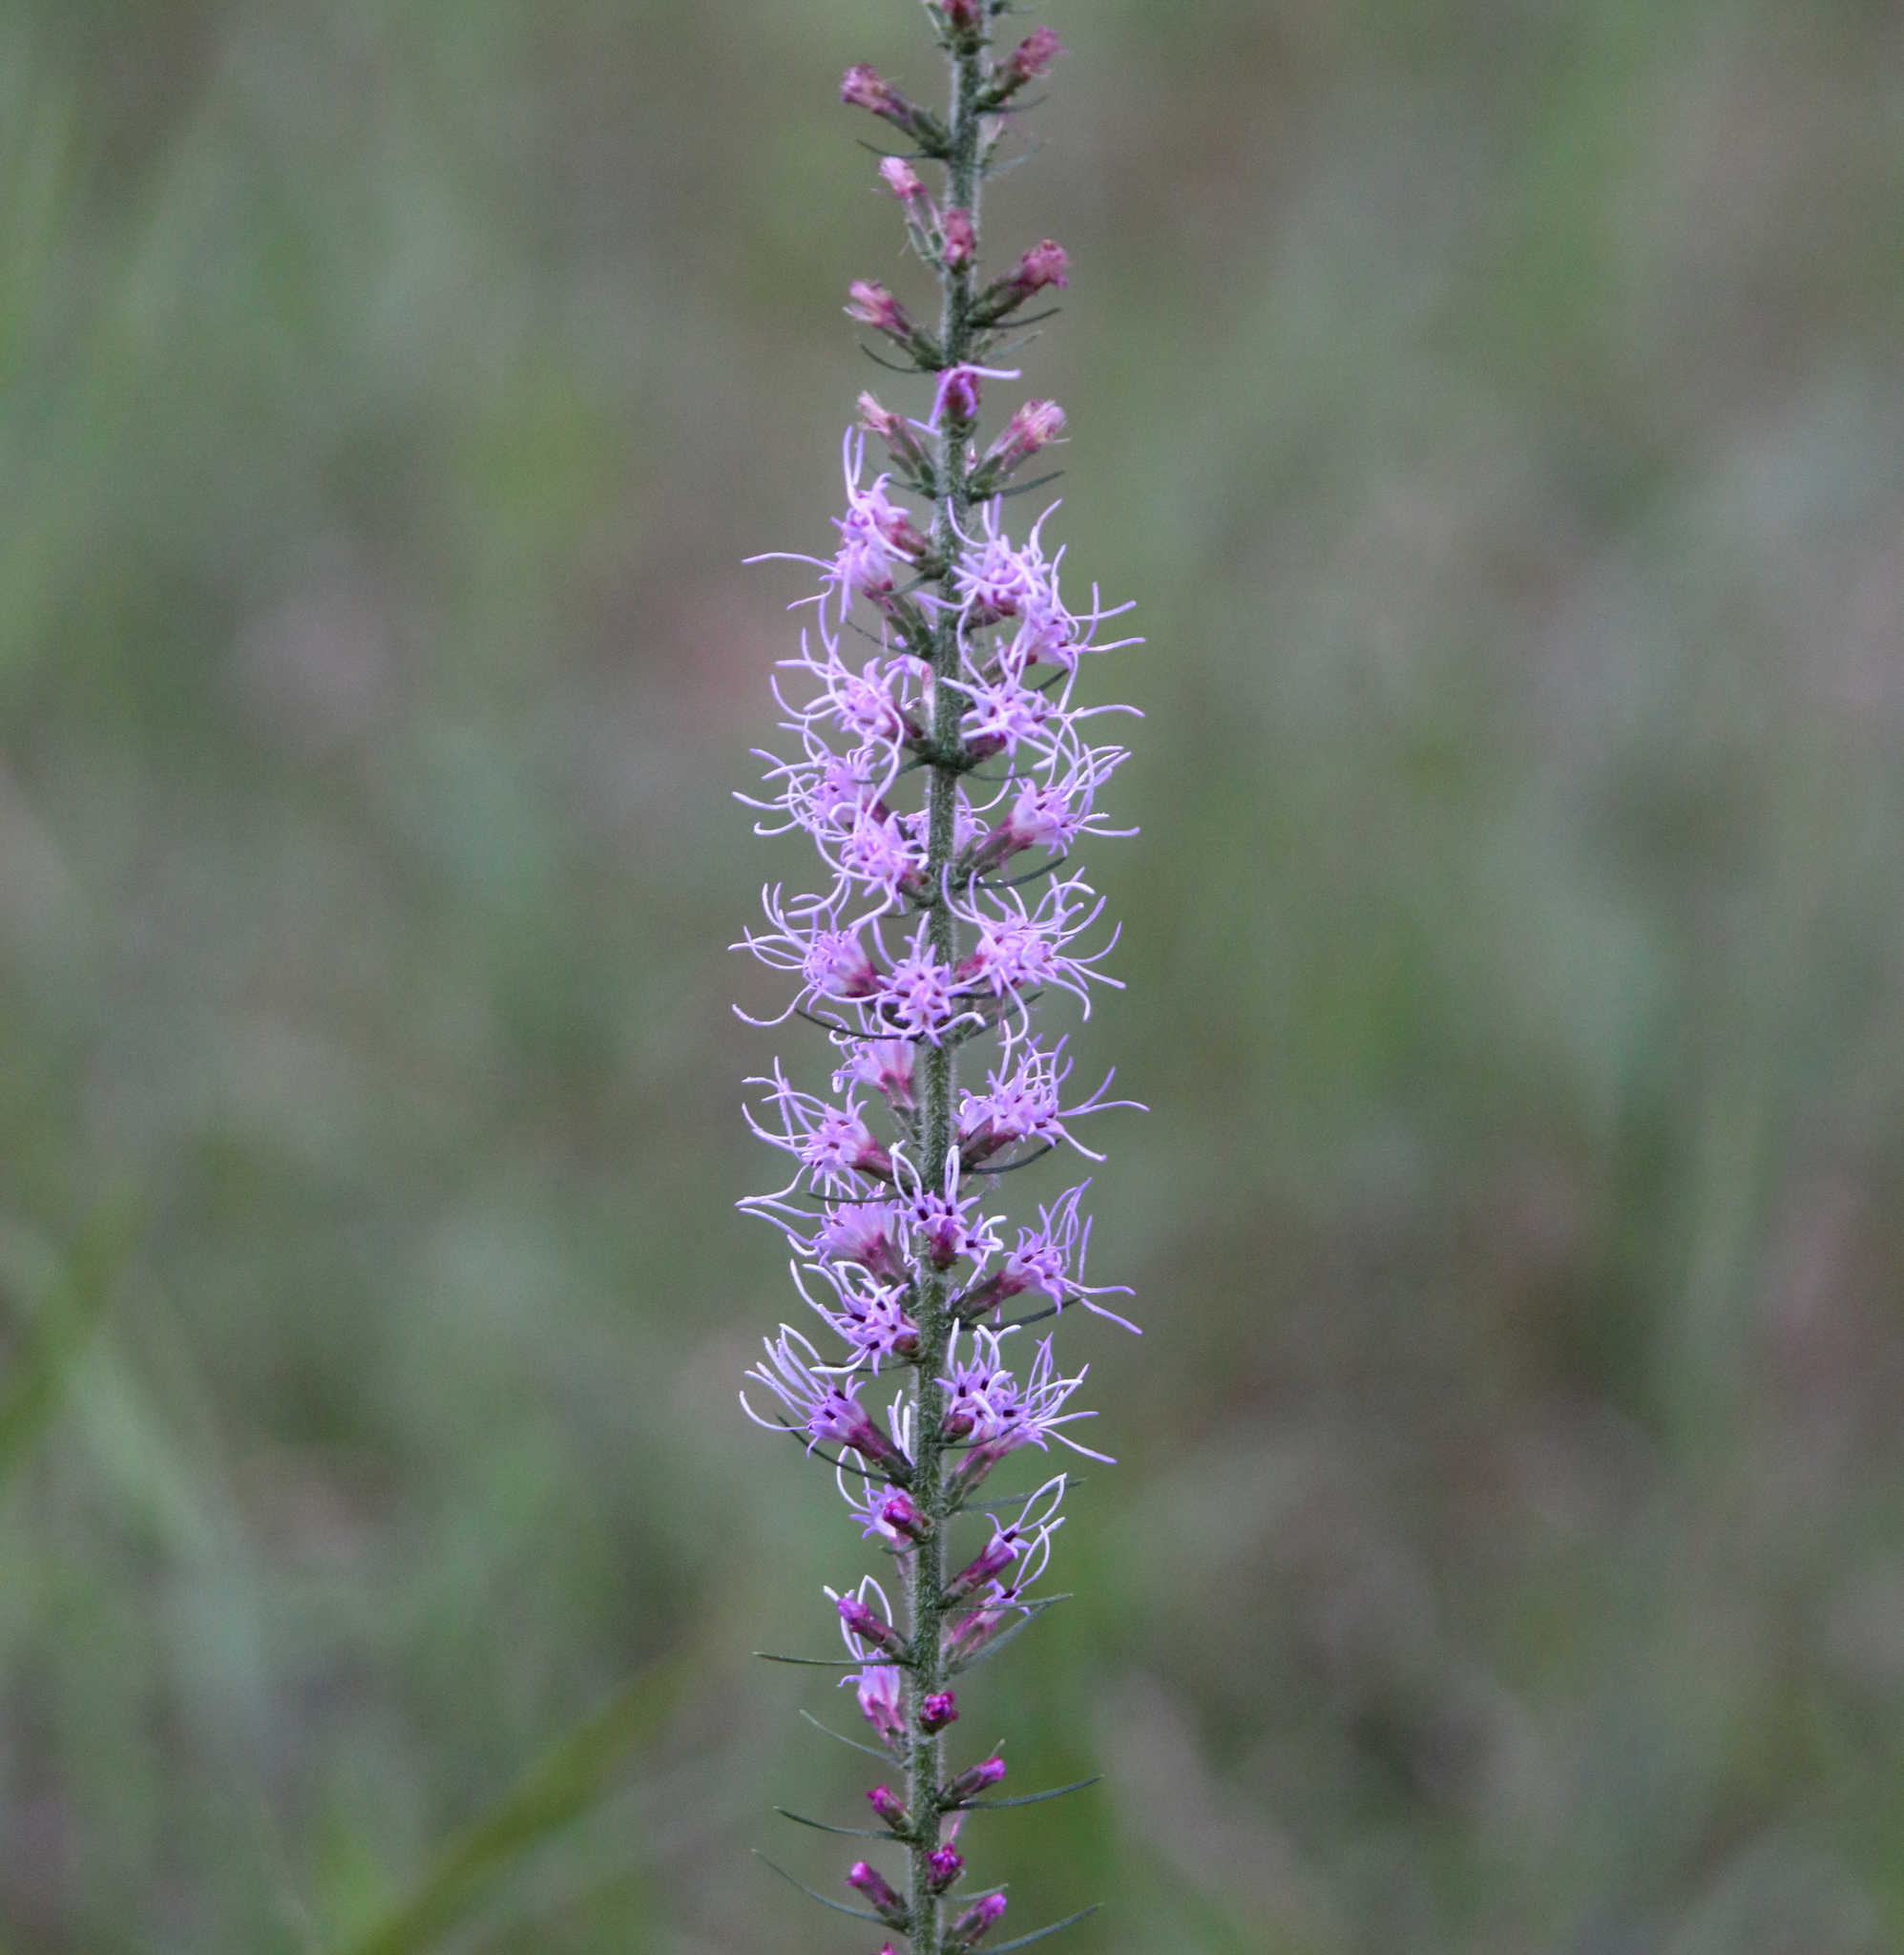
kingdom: Plantae
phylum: Tracheophyta
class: Magnoliopsida
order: Asterales
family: Asteraceae
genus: Liatris
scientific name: Liatris spicata
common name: Florist gayfeather
